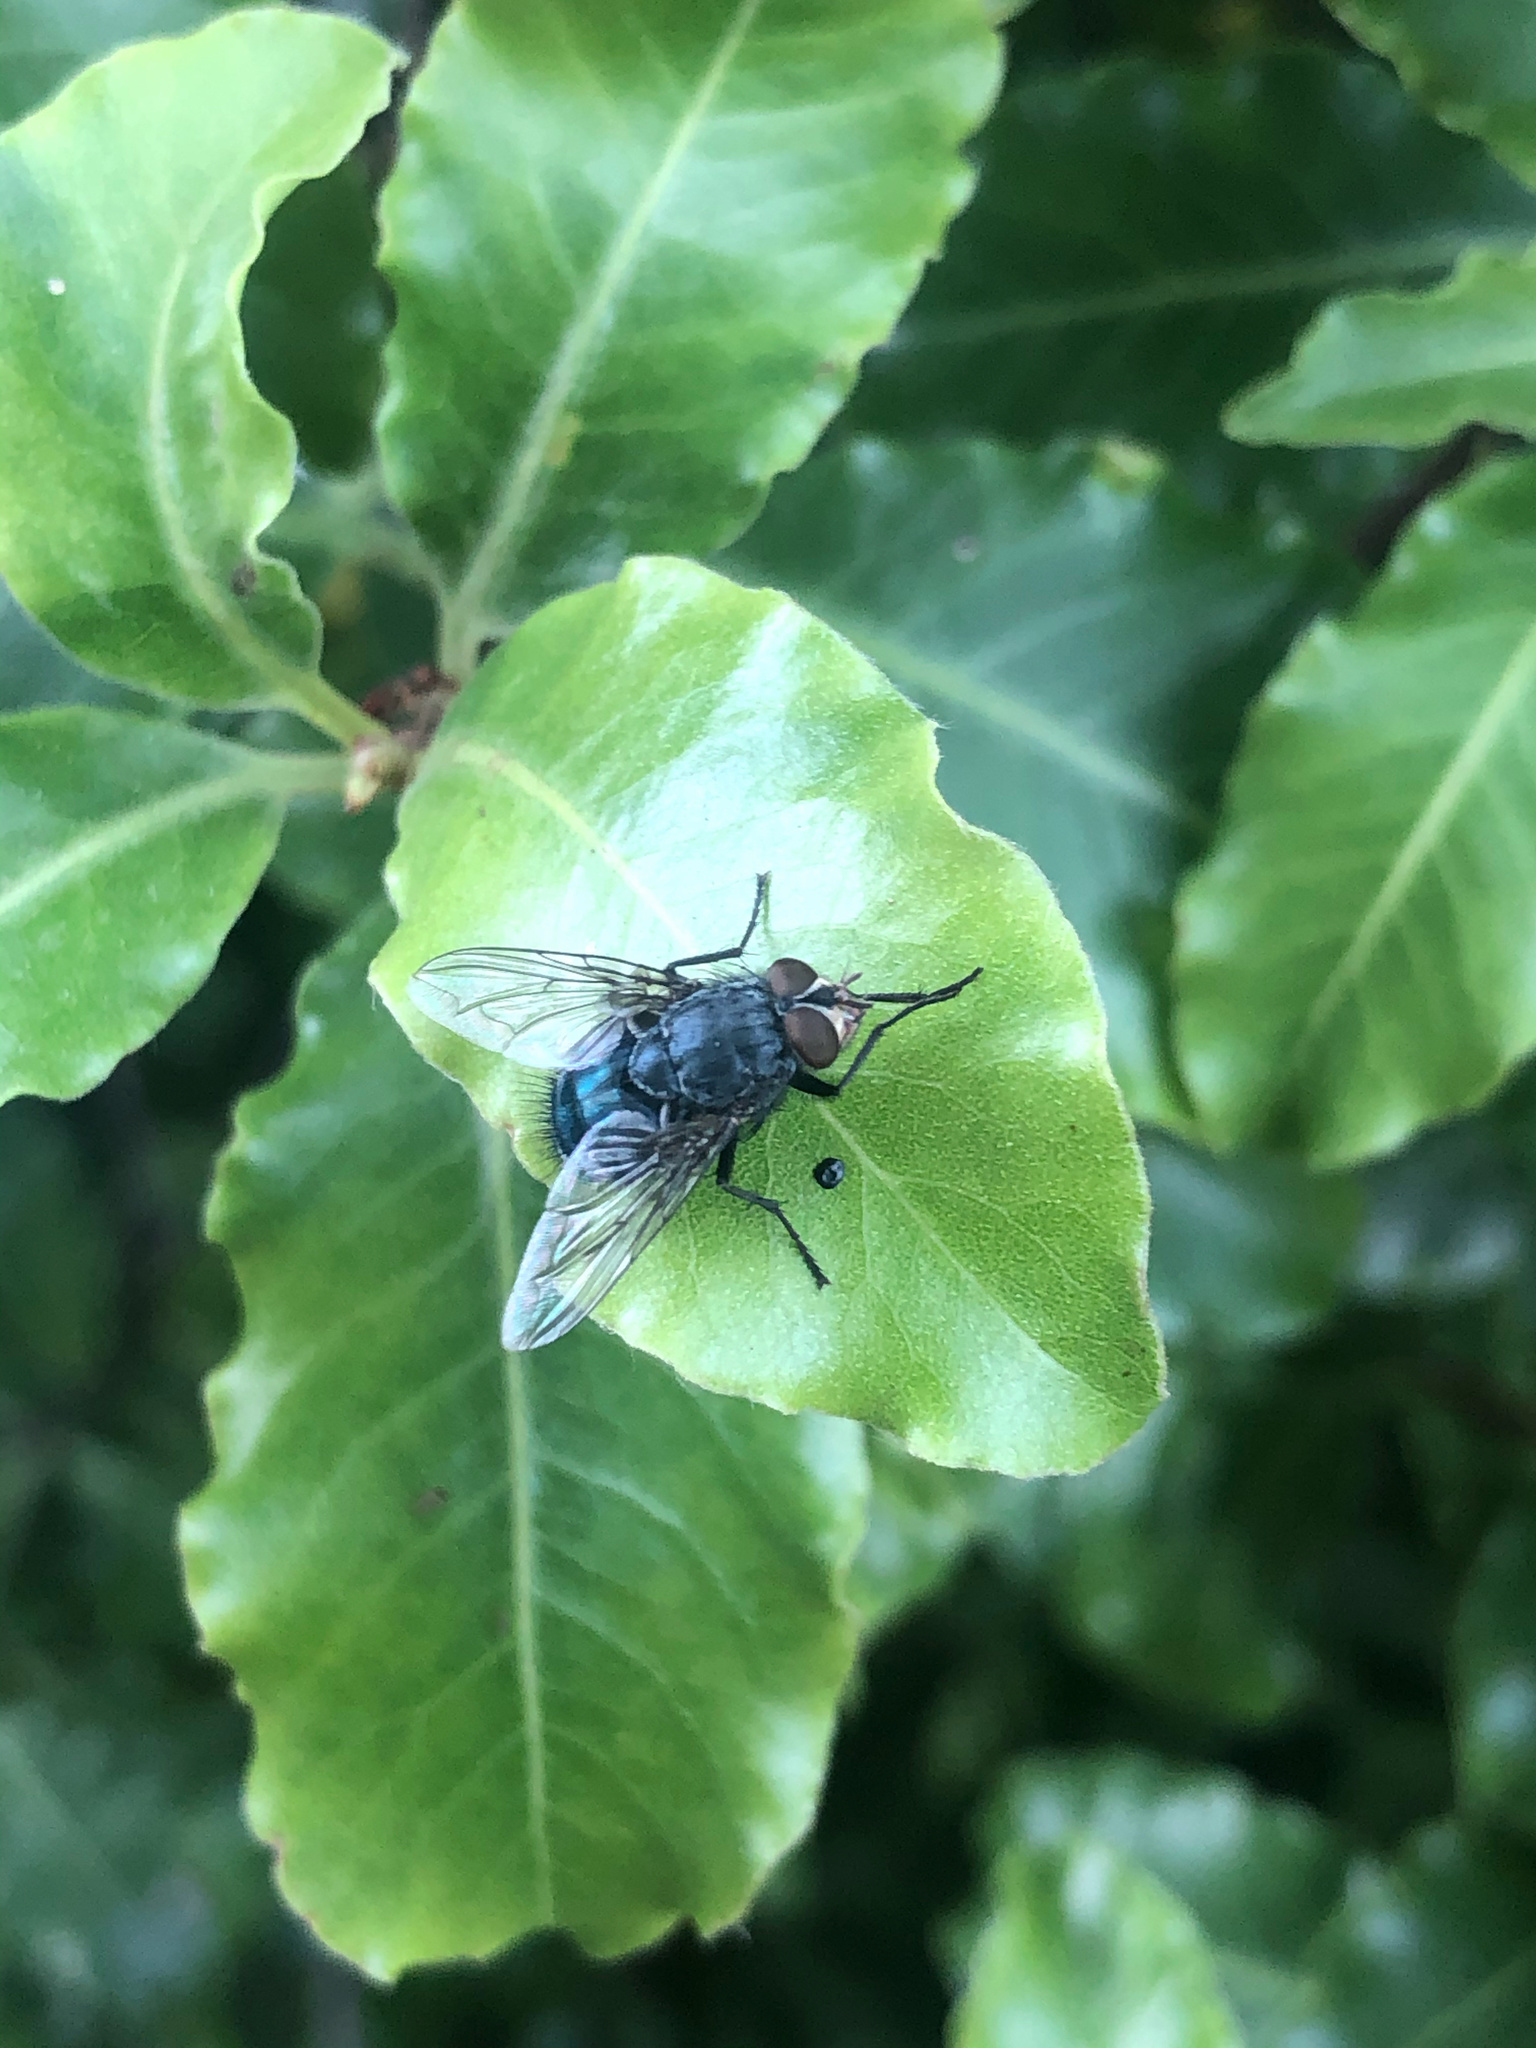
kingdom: Animalia
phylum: Arthropoda
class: Insecta
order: Diptera
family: Calliphoridae
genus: Calliphora
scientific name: Calliphora vicina
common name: Common blow flie
